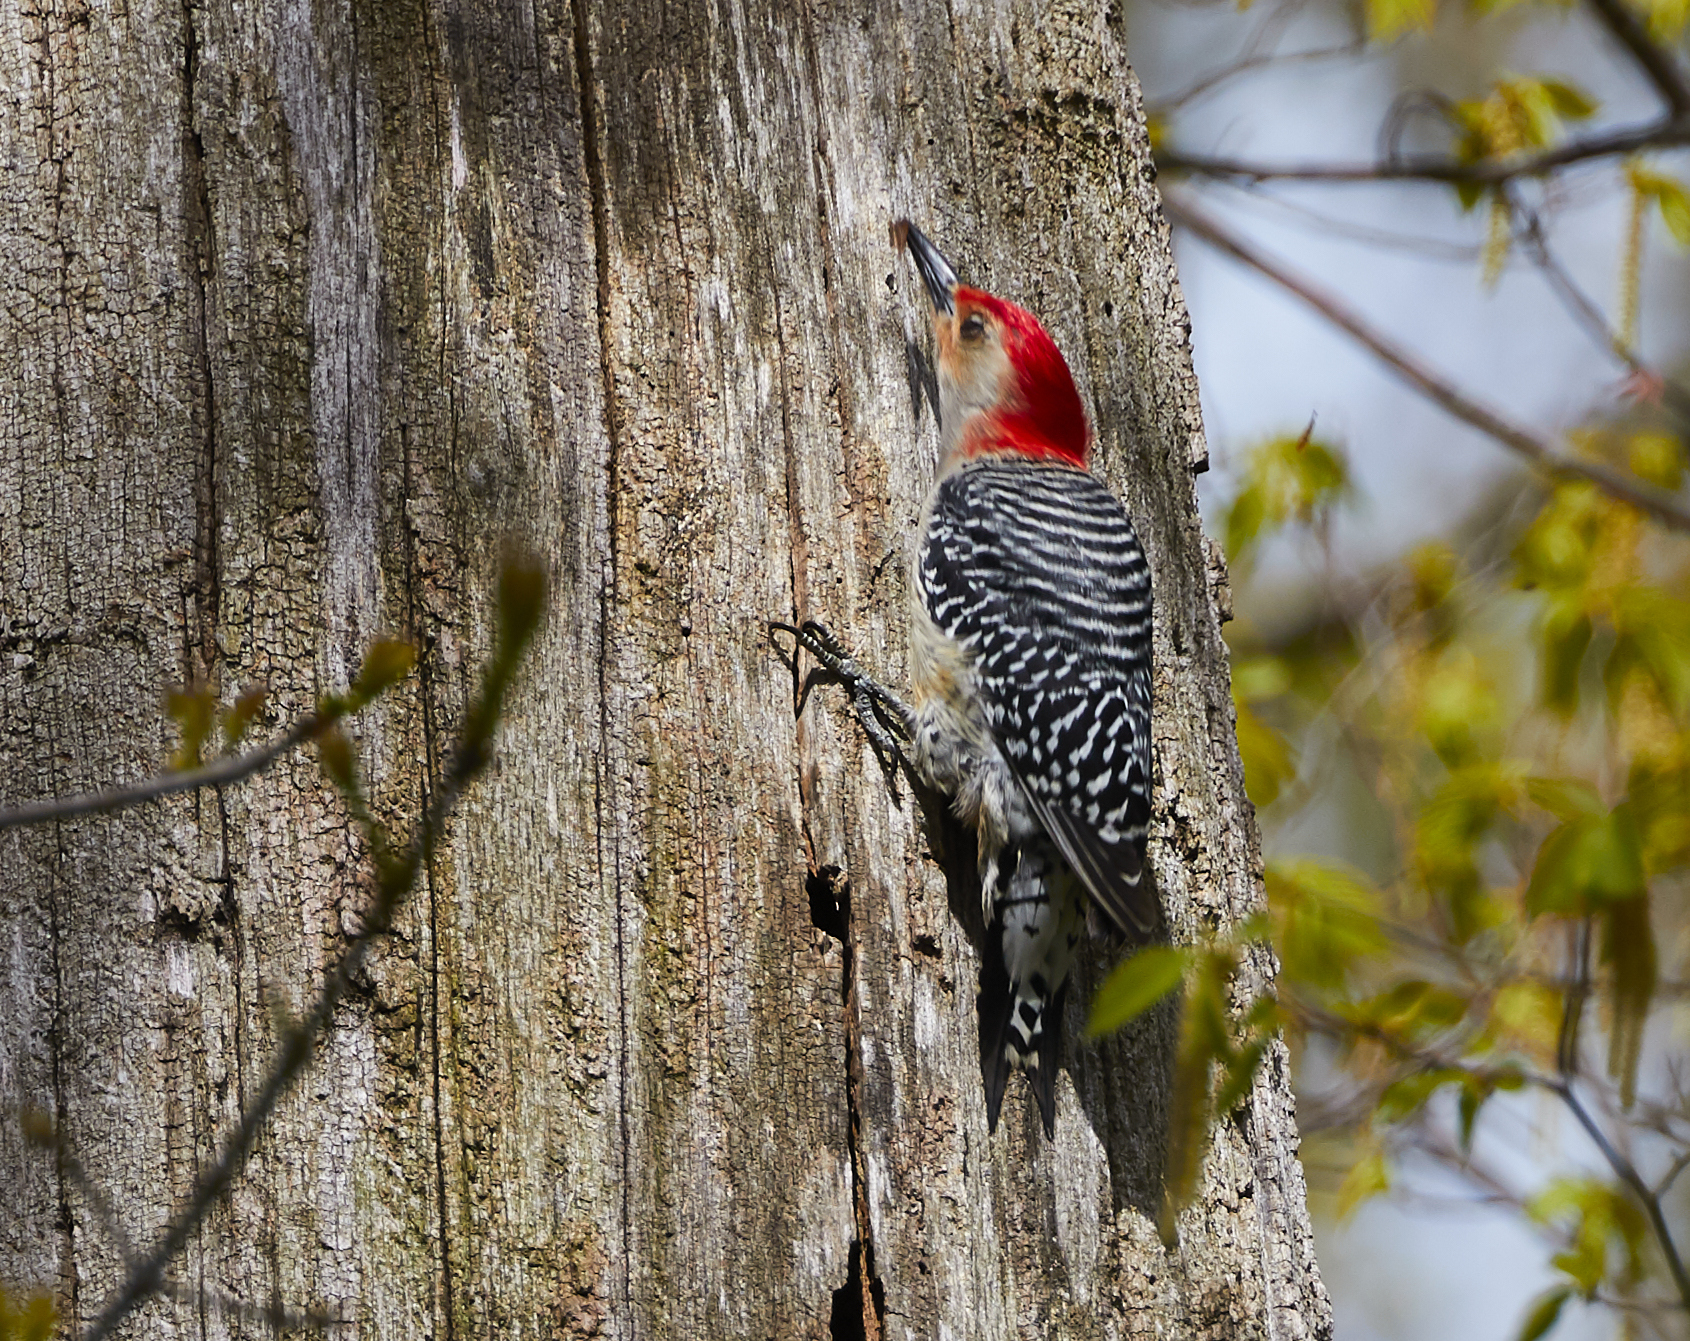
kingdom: Animalia
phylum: Chordata
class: Aves
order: Piciformes
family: Picidae
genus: Melanerpes
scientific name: Melanerpes carolinus
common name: Red-bellied woodpecker
